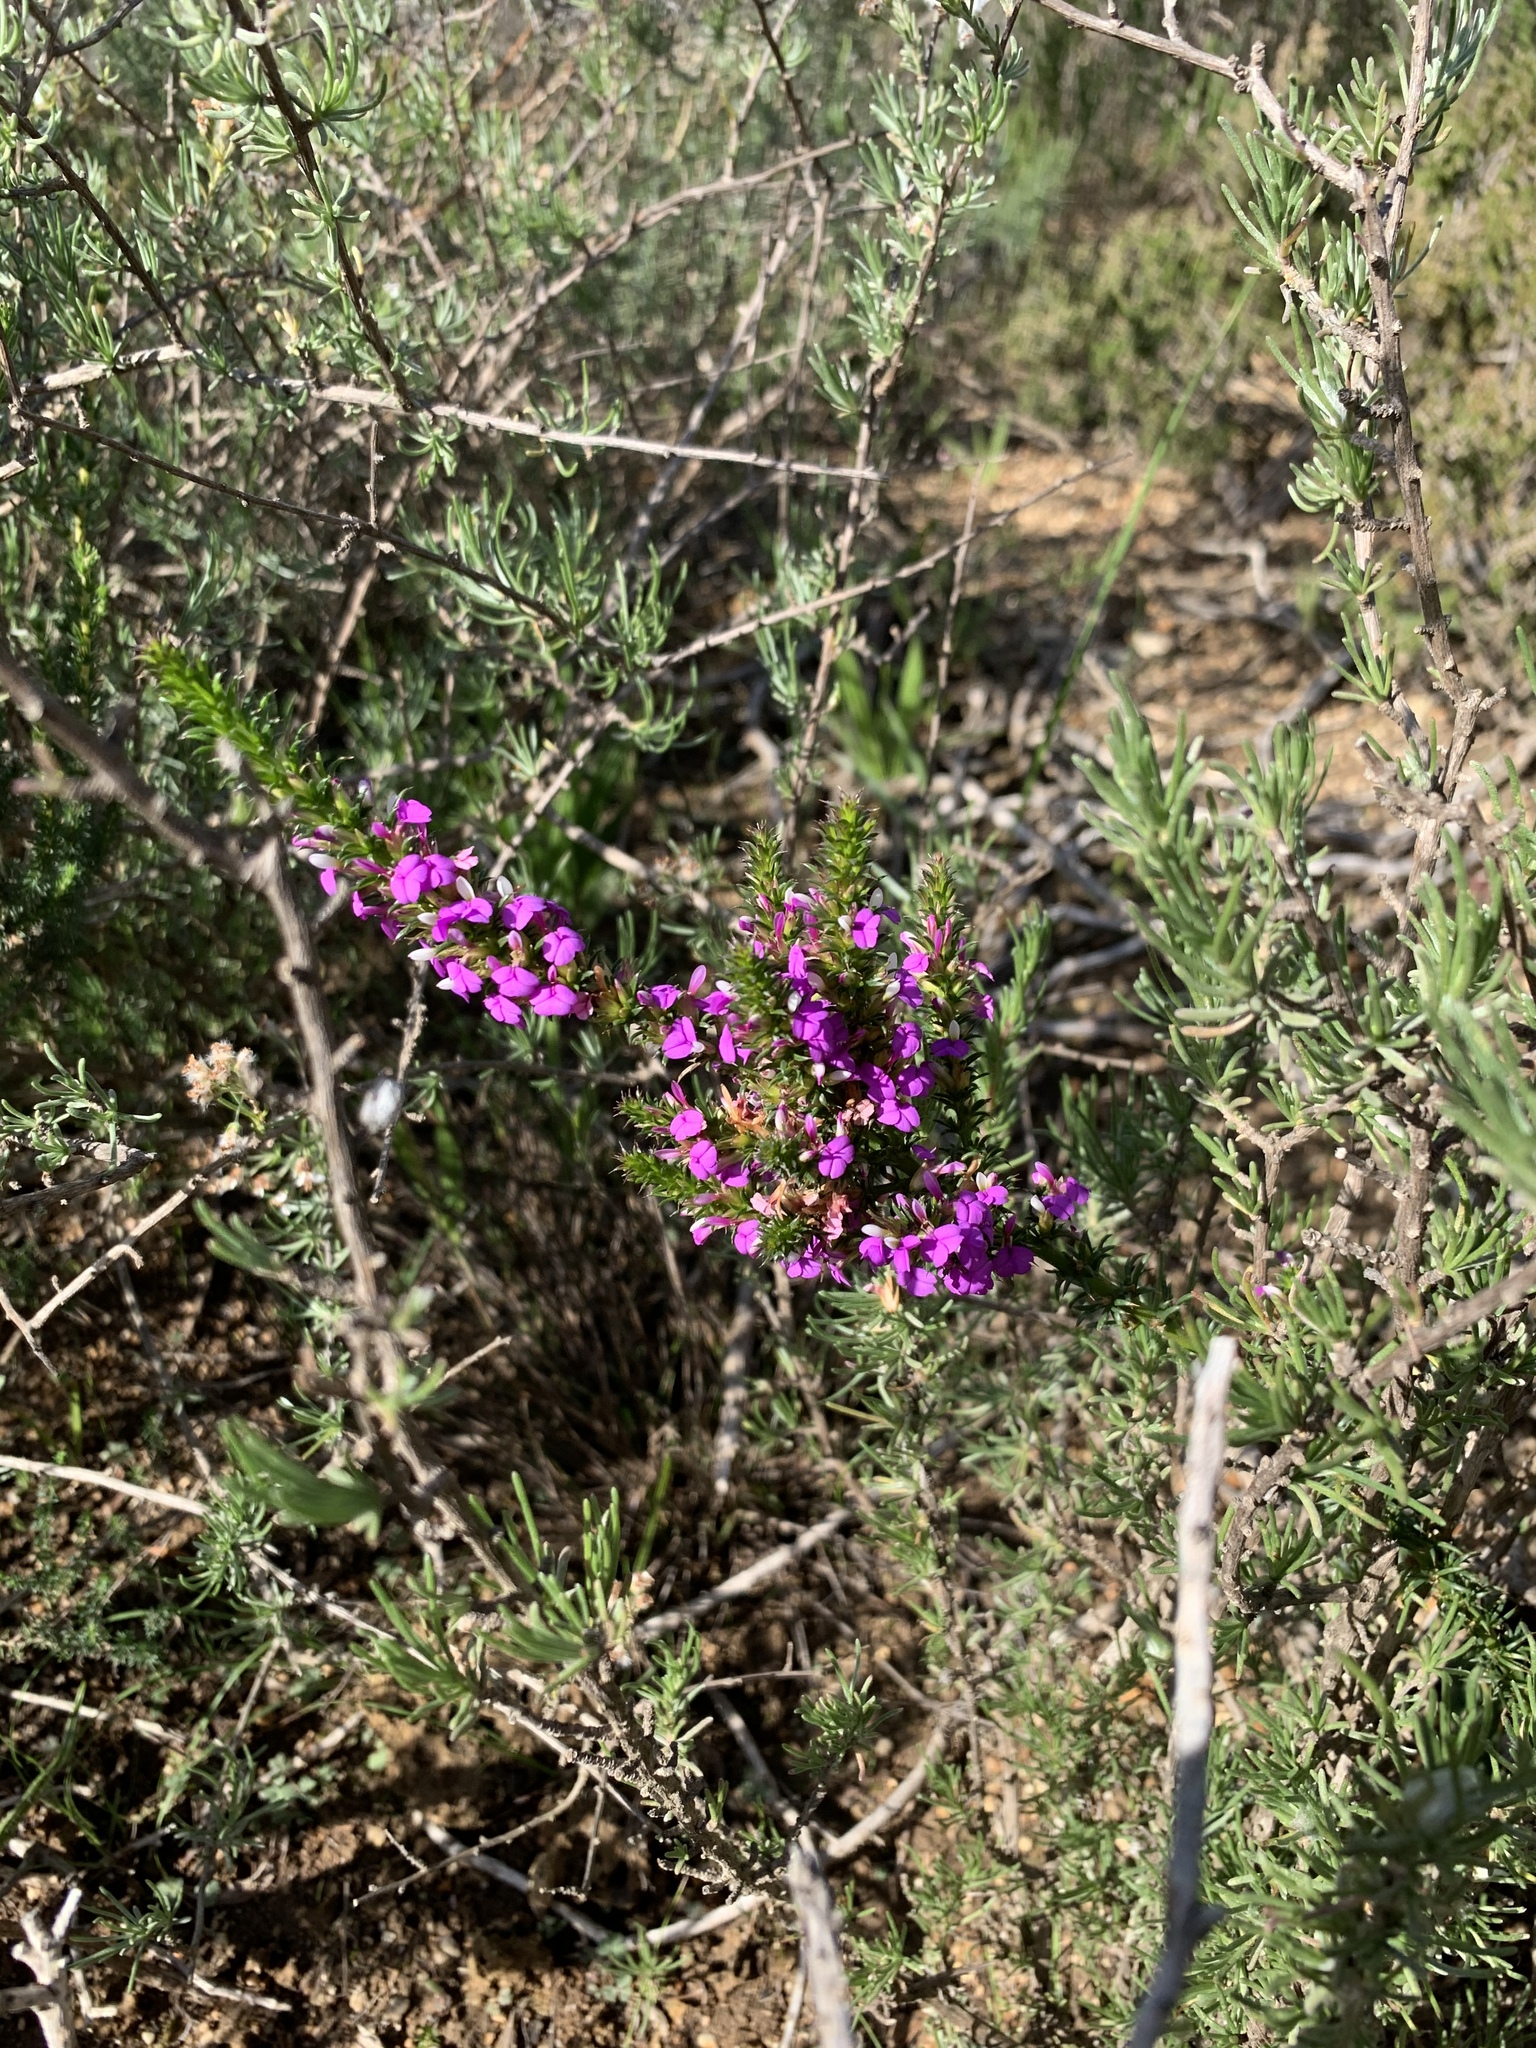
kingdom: Plantae
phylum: Tracheophyta
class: Magnoliopsida
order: Fabales
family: Polygalaceae
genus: Muraltia
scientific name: Muraltia heisteria
